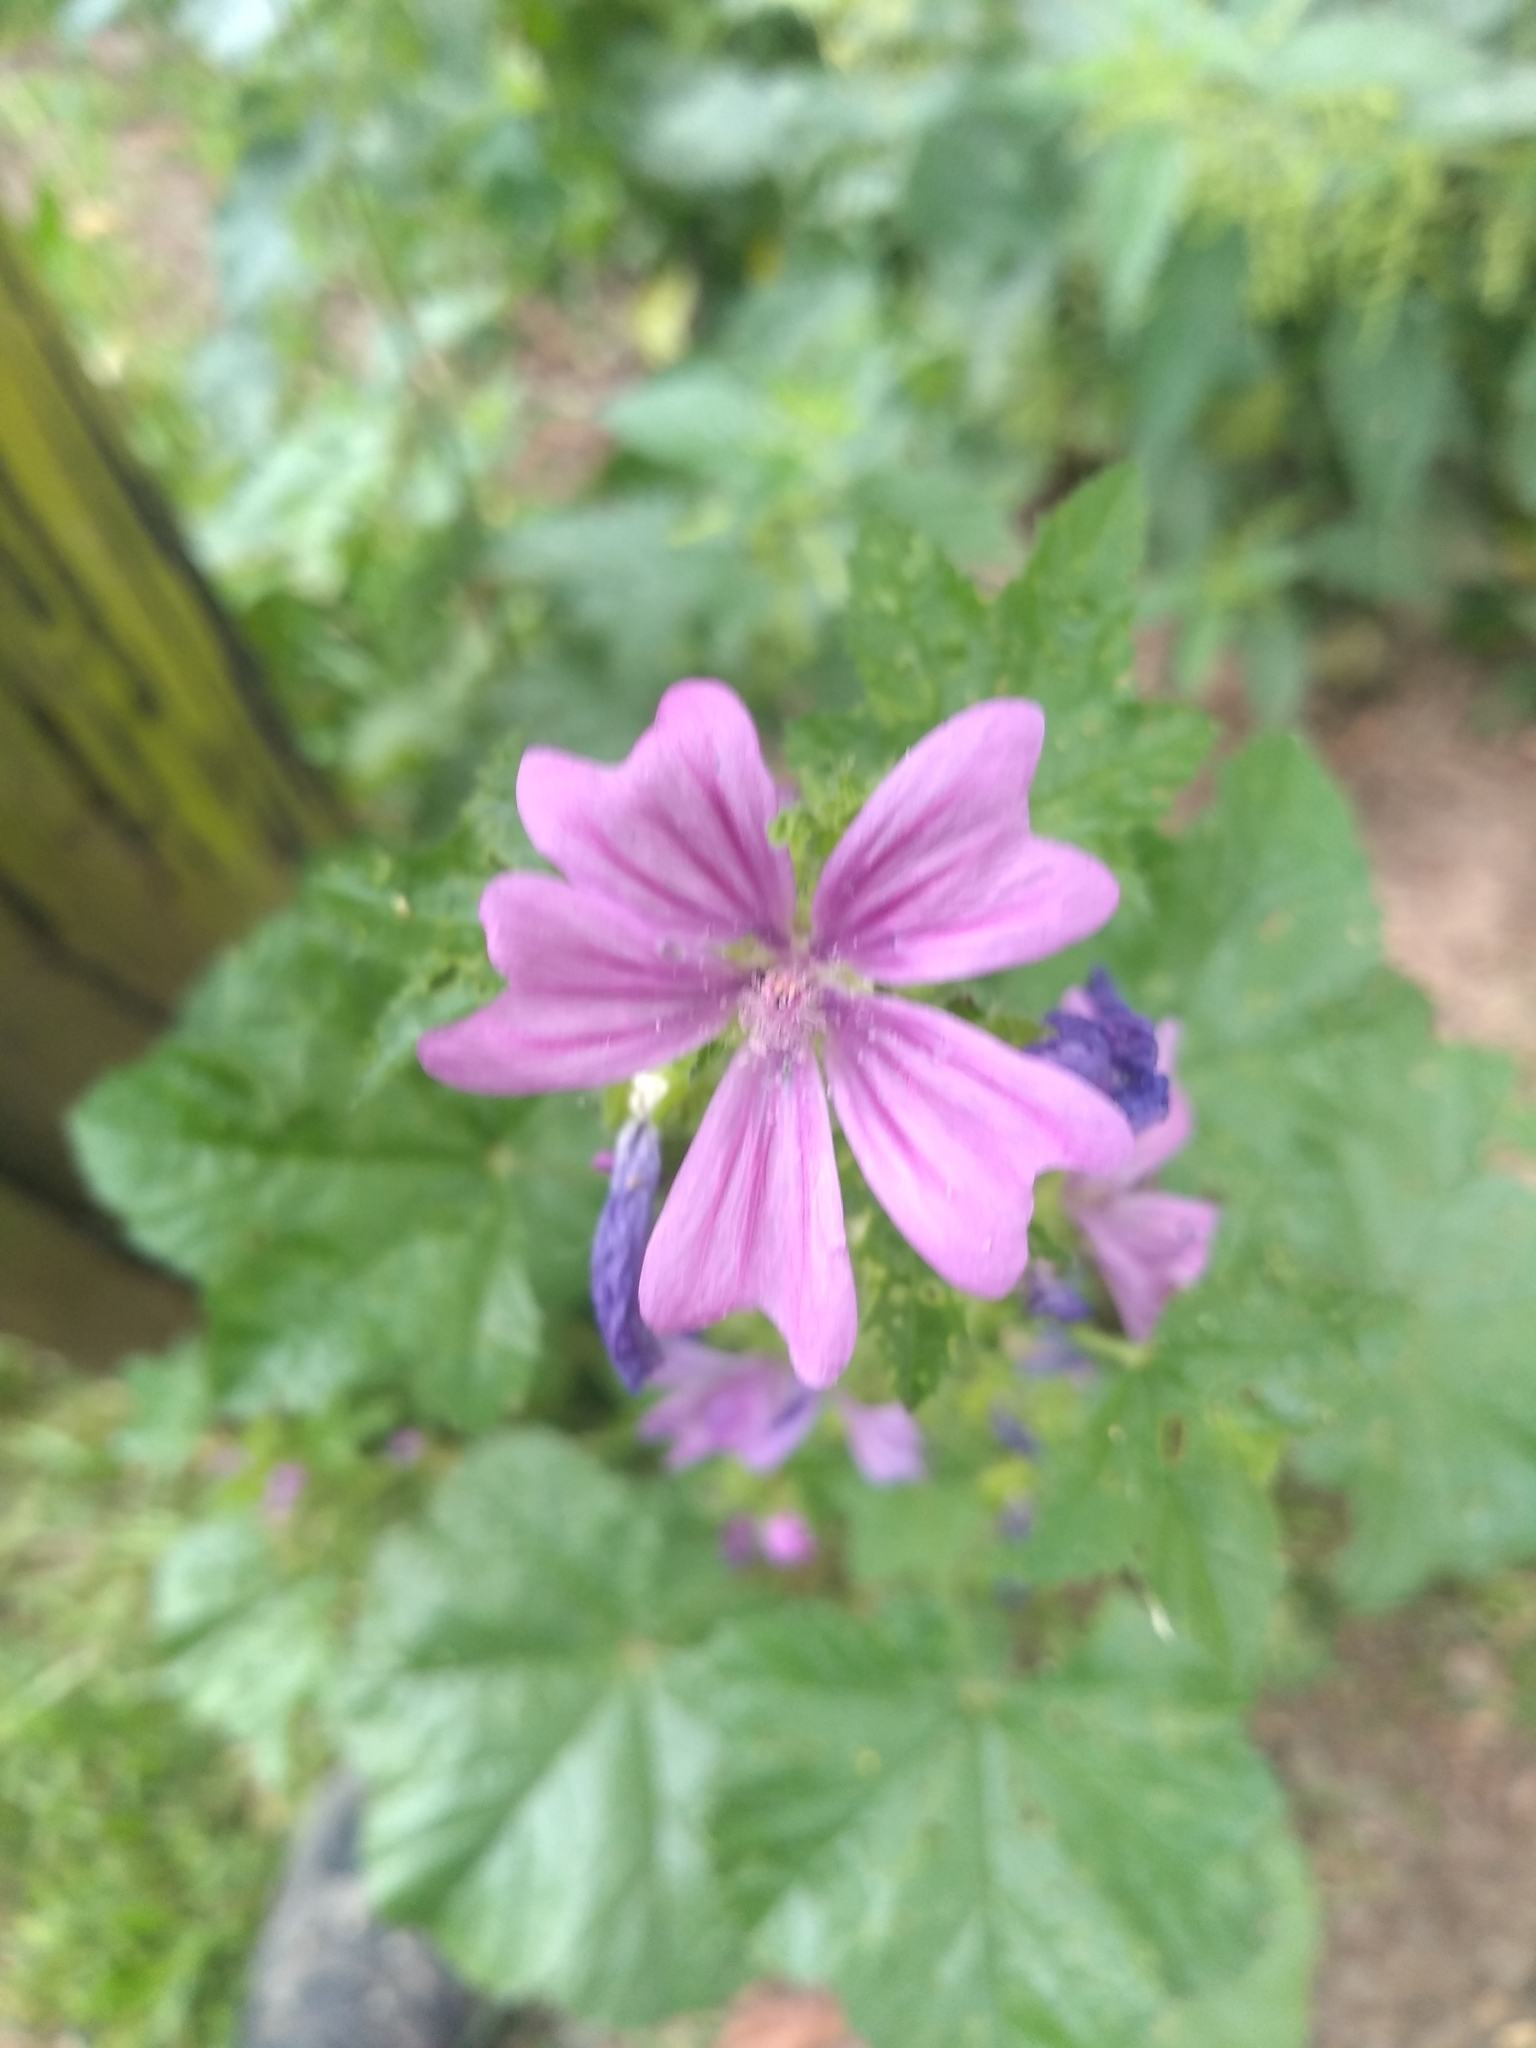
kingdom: Plantae
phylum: Tracheophyta
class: Magnoliopsida
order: Malvales
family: Malvaceae
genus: Malva
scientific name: Malva sylvestris
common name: Common mallow
